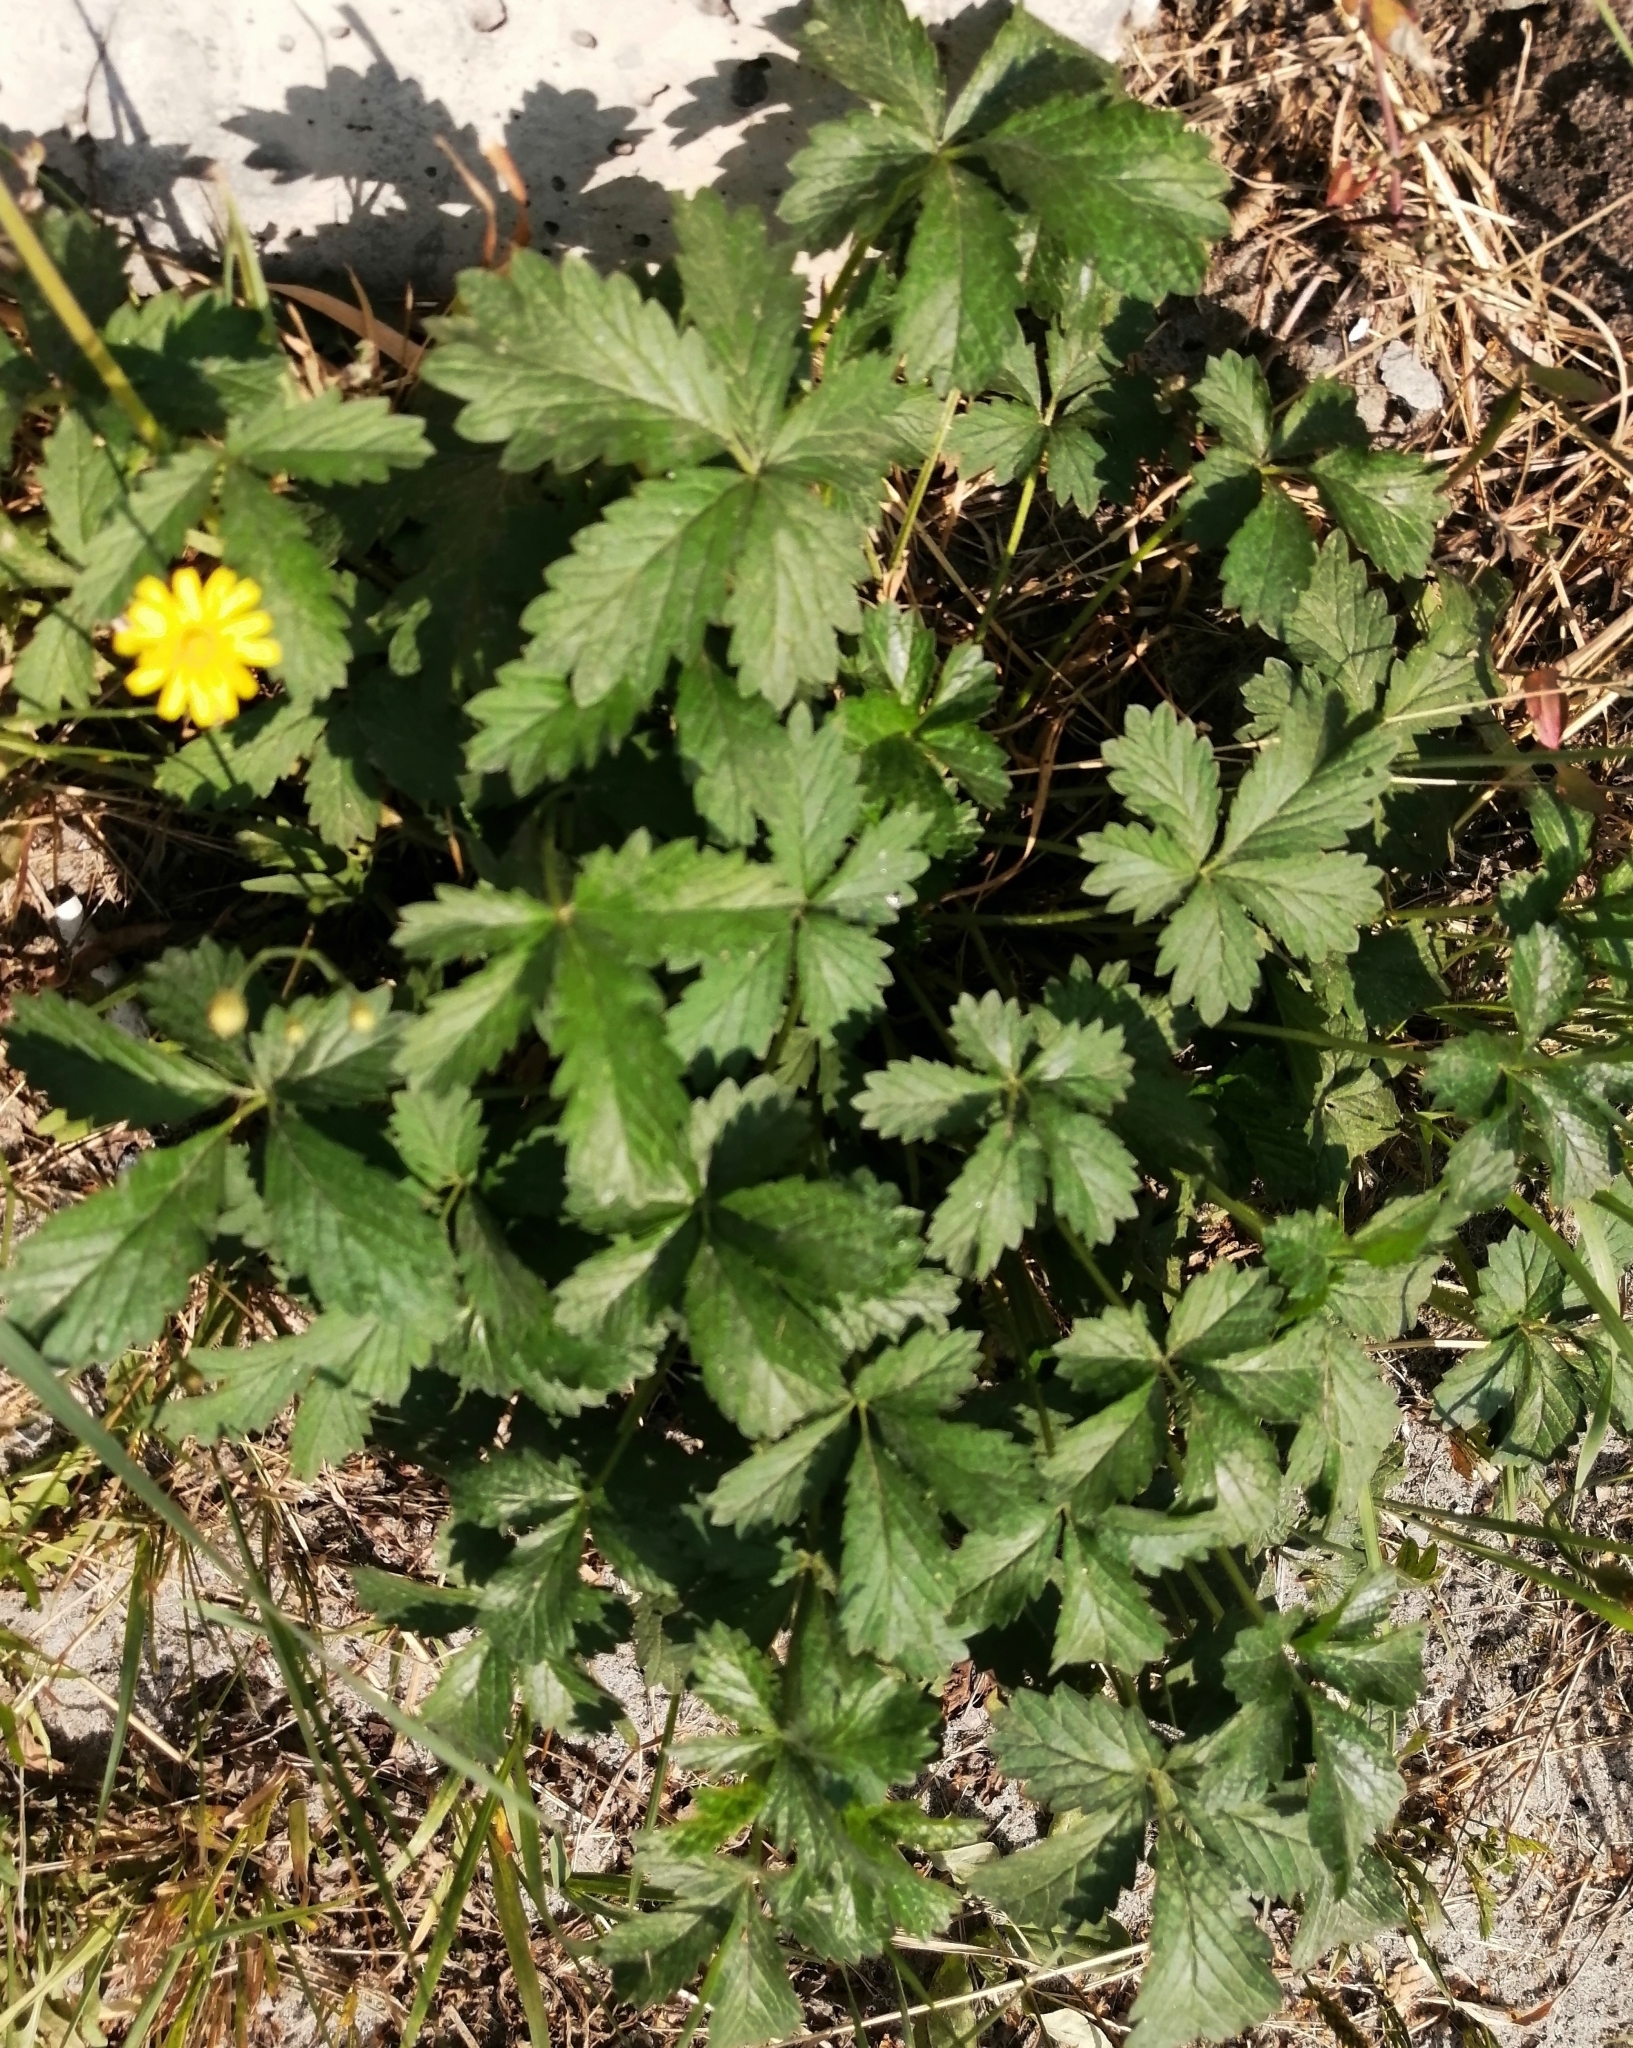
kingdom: Plantae
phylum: Tracheophyta
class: Magnoliopsida
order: Rosales
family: Rosaceae
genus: Potentilla
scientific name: Potentilla intermedia
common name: Downy cinquefoil
